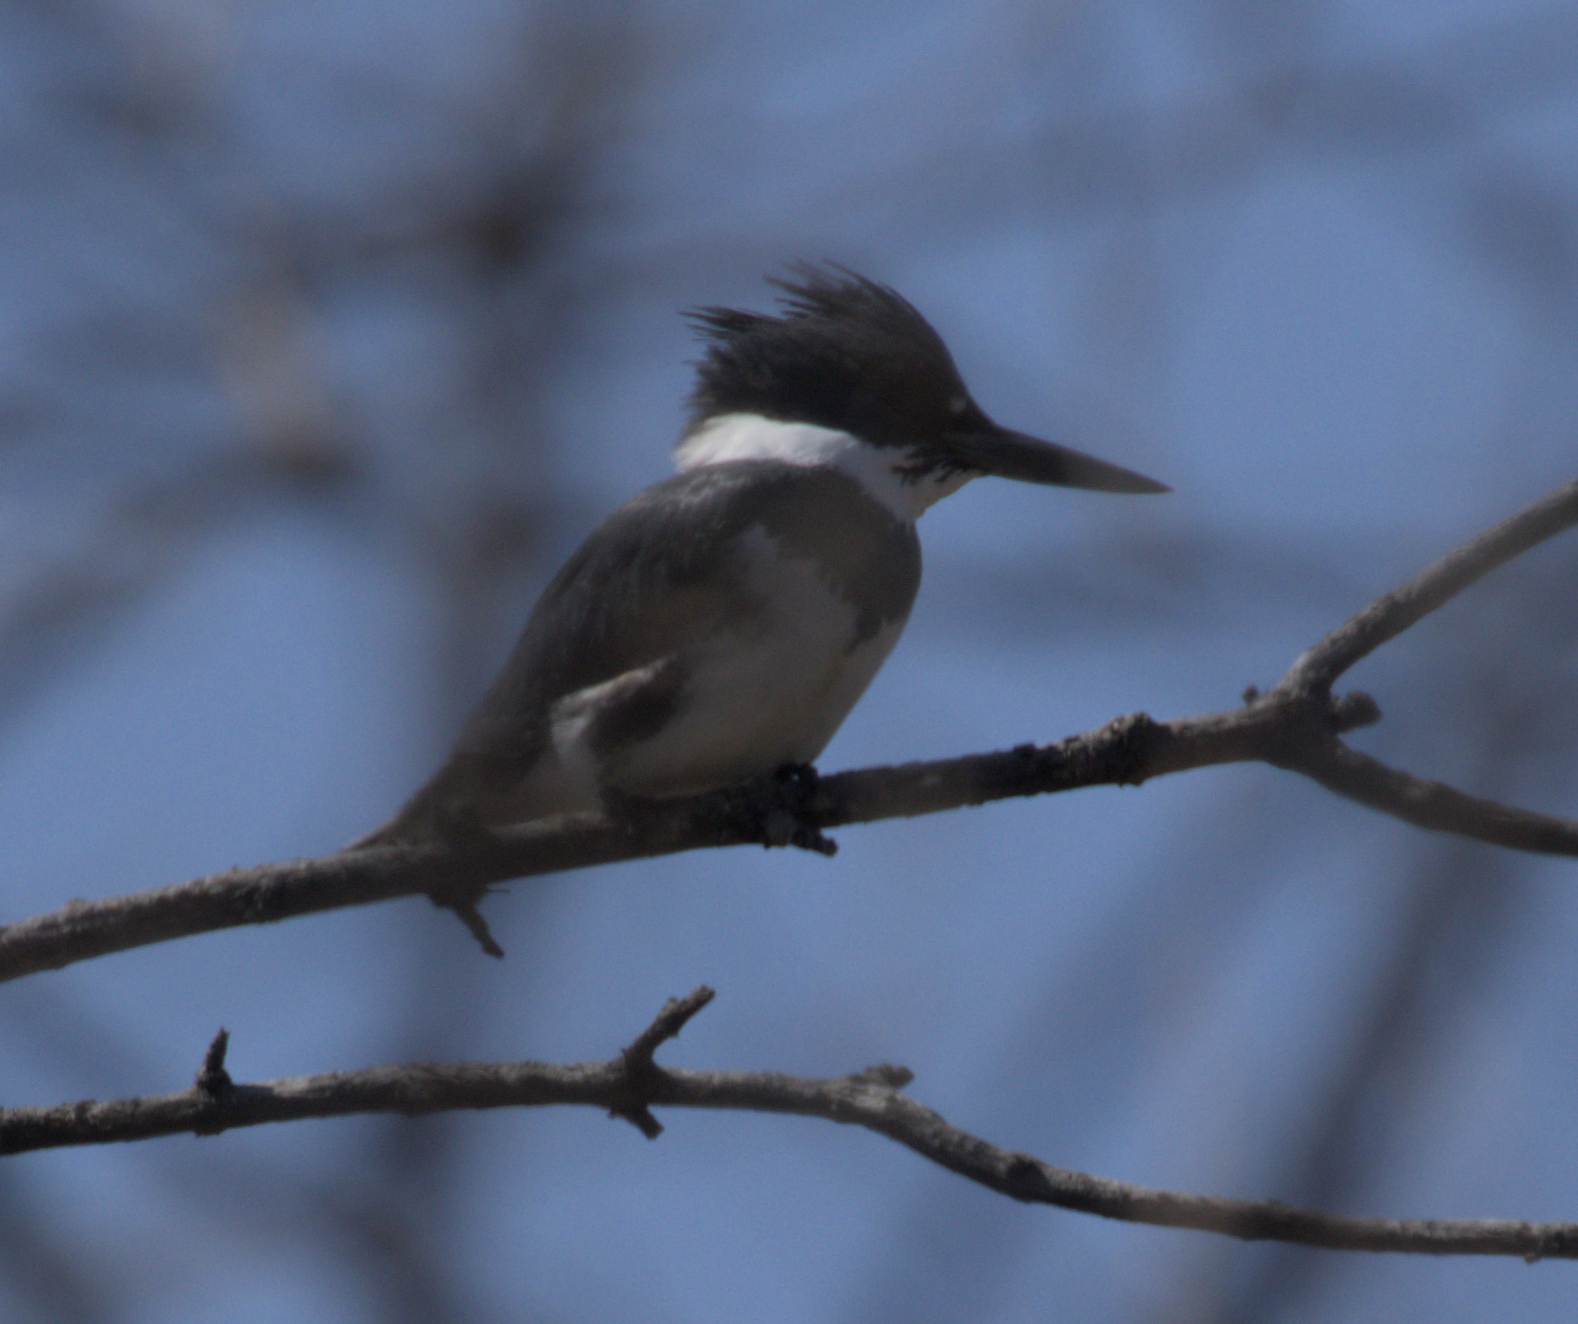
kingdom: Animalia
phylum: Chordata
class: Aves
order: Coraciiformes
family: Alcedinidae
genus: Megaceryle
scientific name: Megaceryle alcyon
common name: Belted kingfisher
